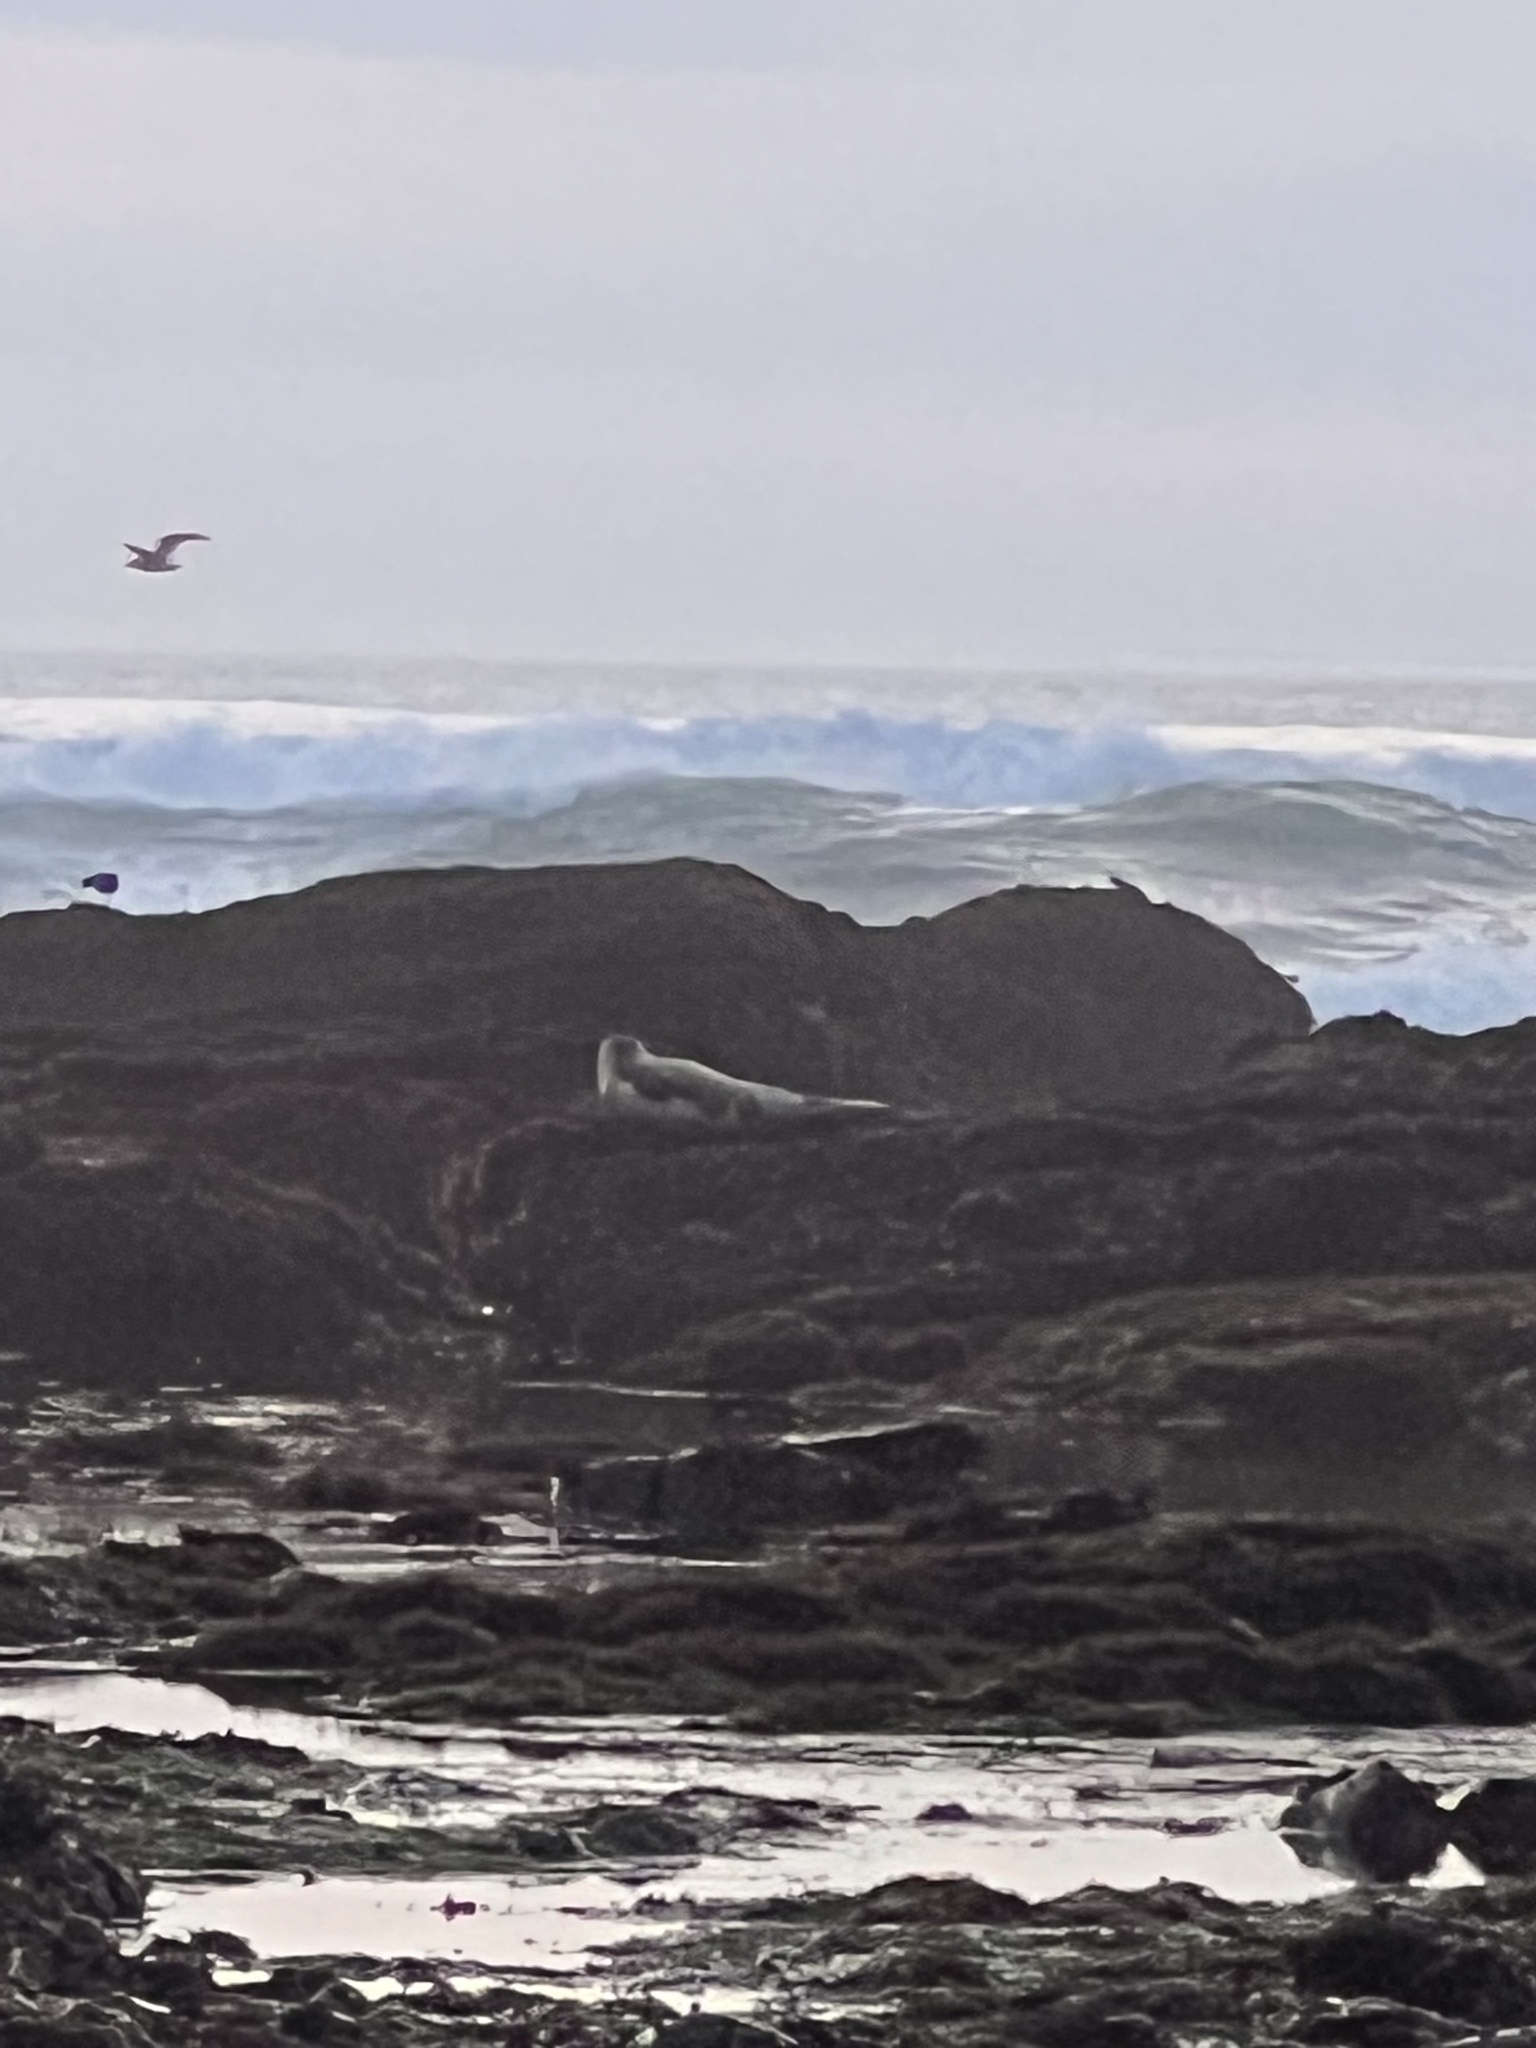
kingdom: Animalia
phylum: Chordata
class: Mammalia
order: Carnivora
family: Phocidae
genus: Phoca
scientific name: Phoca vitulina
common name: Harbor seal
